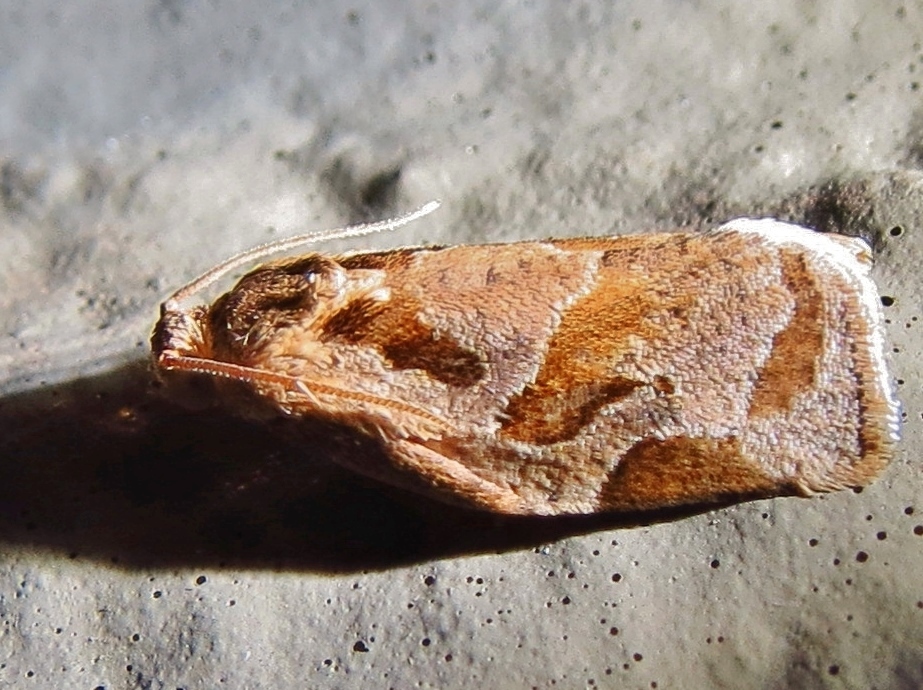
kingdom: Animalia
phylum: Arthropoda
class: Insecta
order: Lepidoptera
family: Tortricidae
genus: Archips
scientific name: Archips grisea
